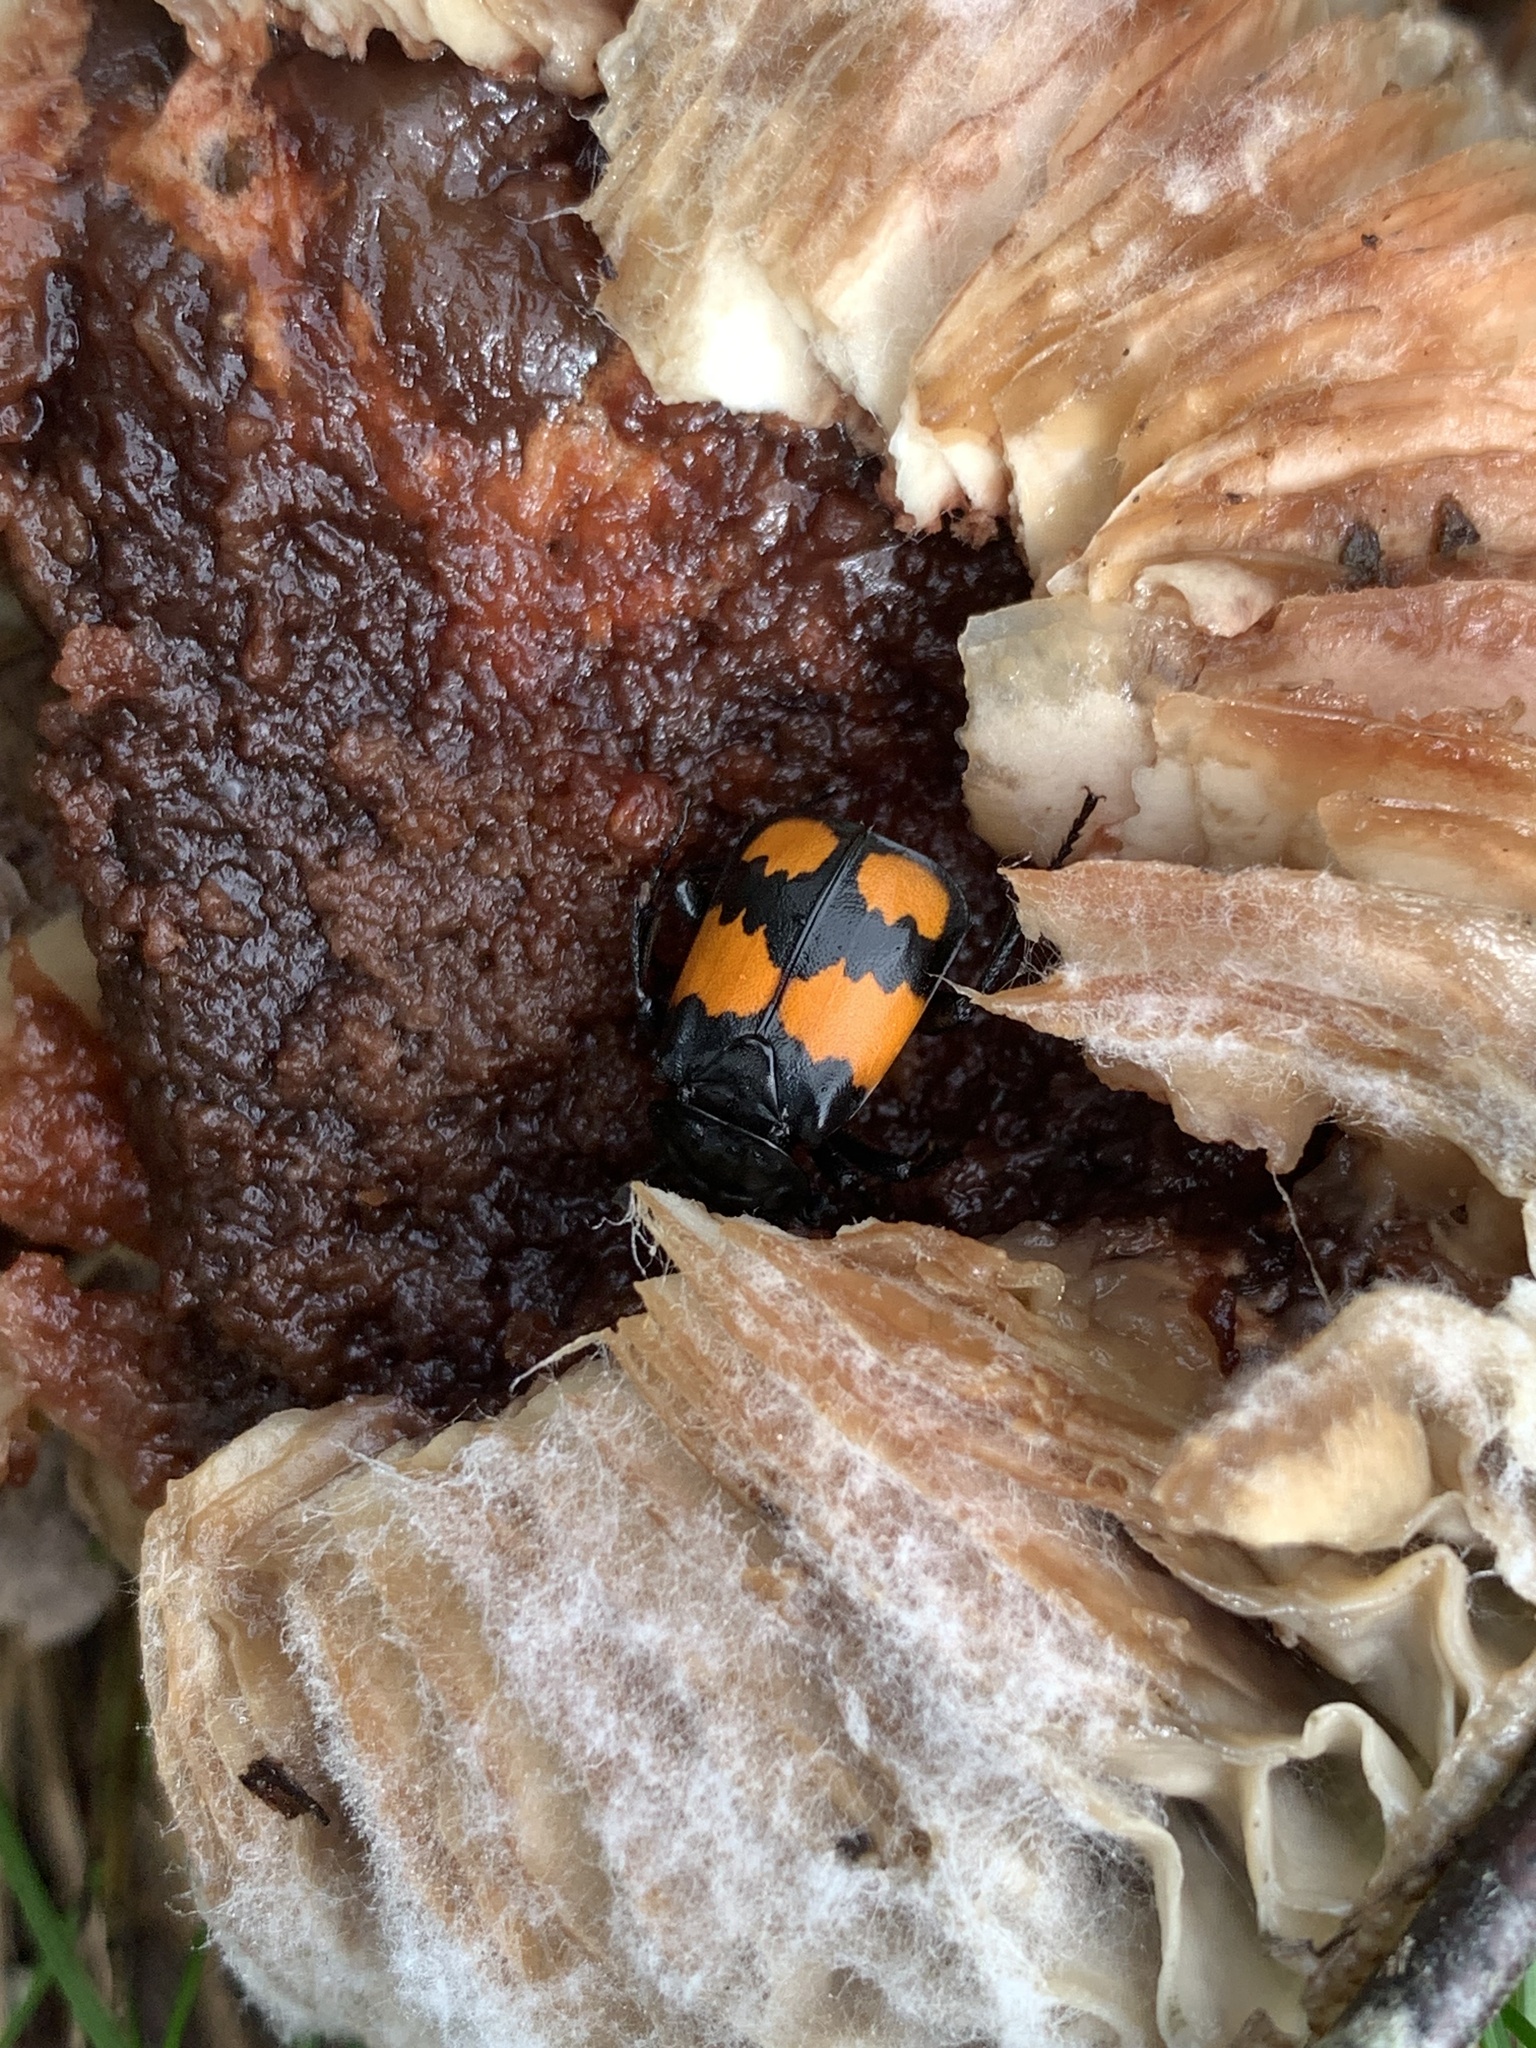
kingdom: Animalia
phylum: Arthropoda
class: Insecta
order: Coleoptera
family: Staphylinidae
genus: Nicrophorus
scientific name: Nicrophorus vespilloides
